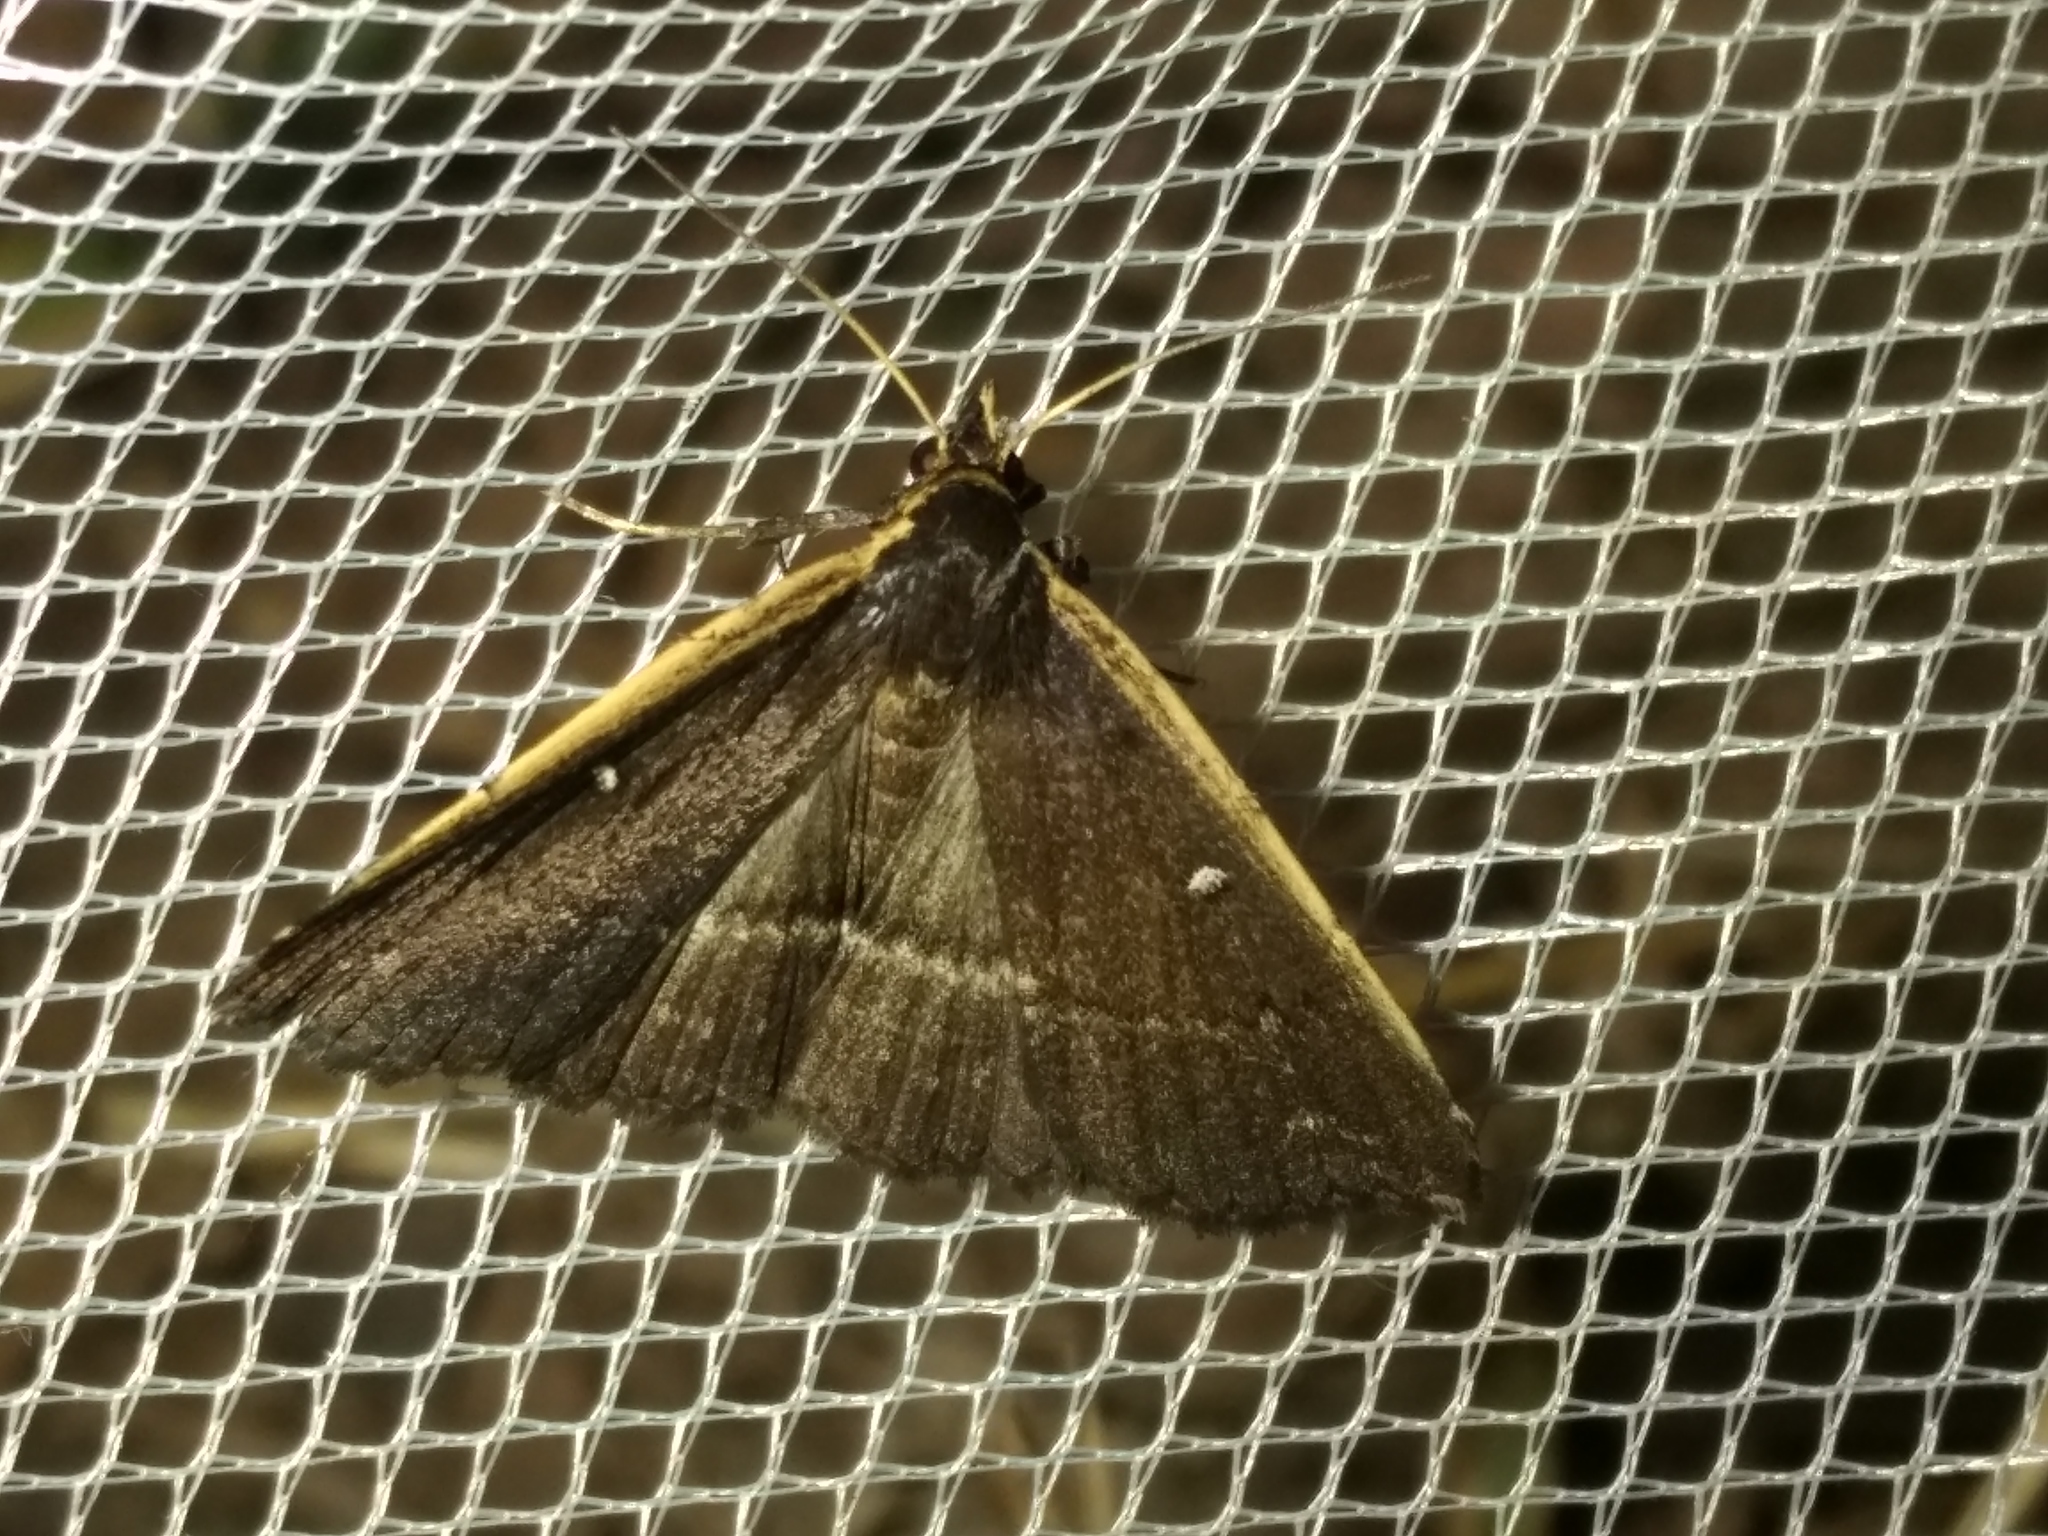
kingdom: Animalia
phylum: Arthropoda
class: Insecta
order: Lepidoptera
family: Erebidae
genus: Adrapsa
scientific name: Adrapsa ablualis
